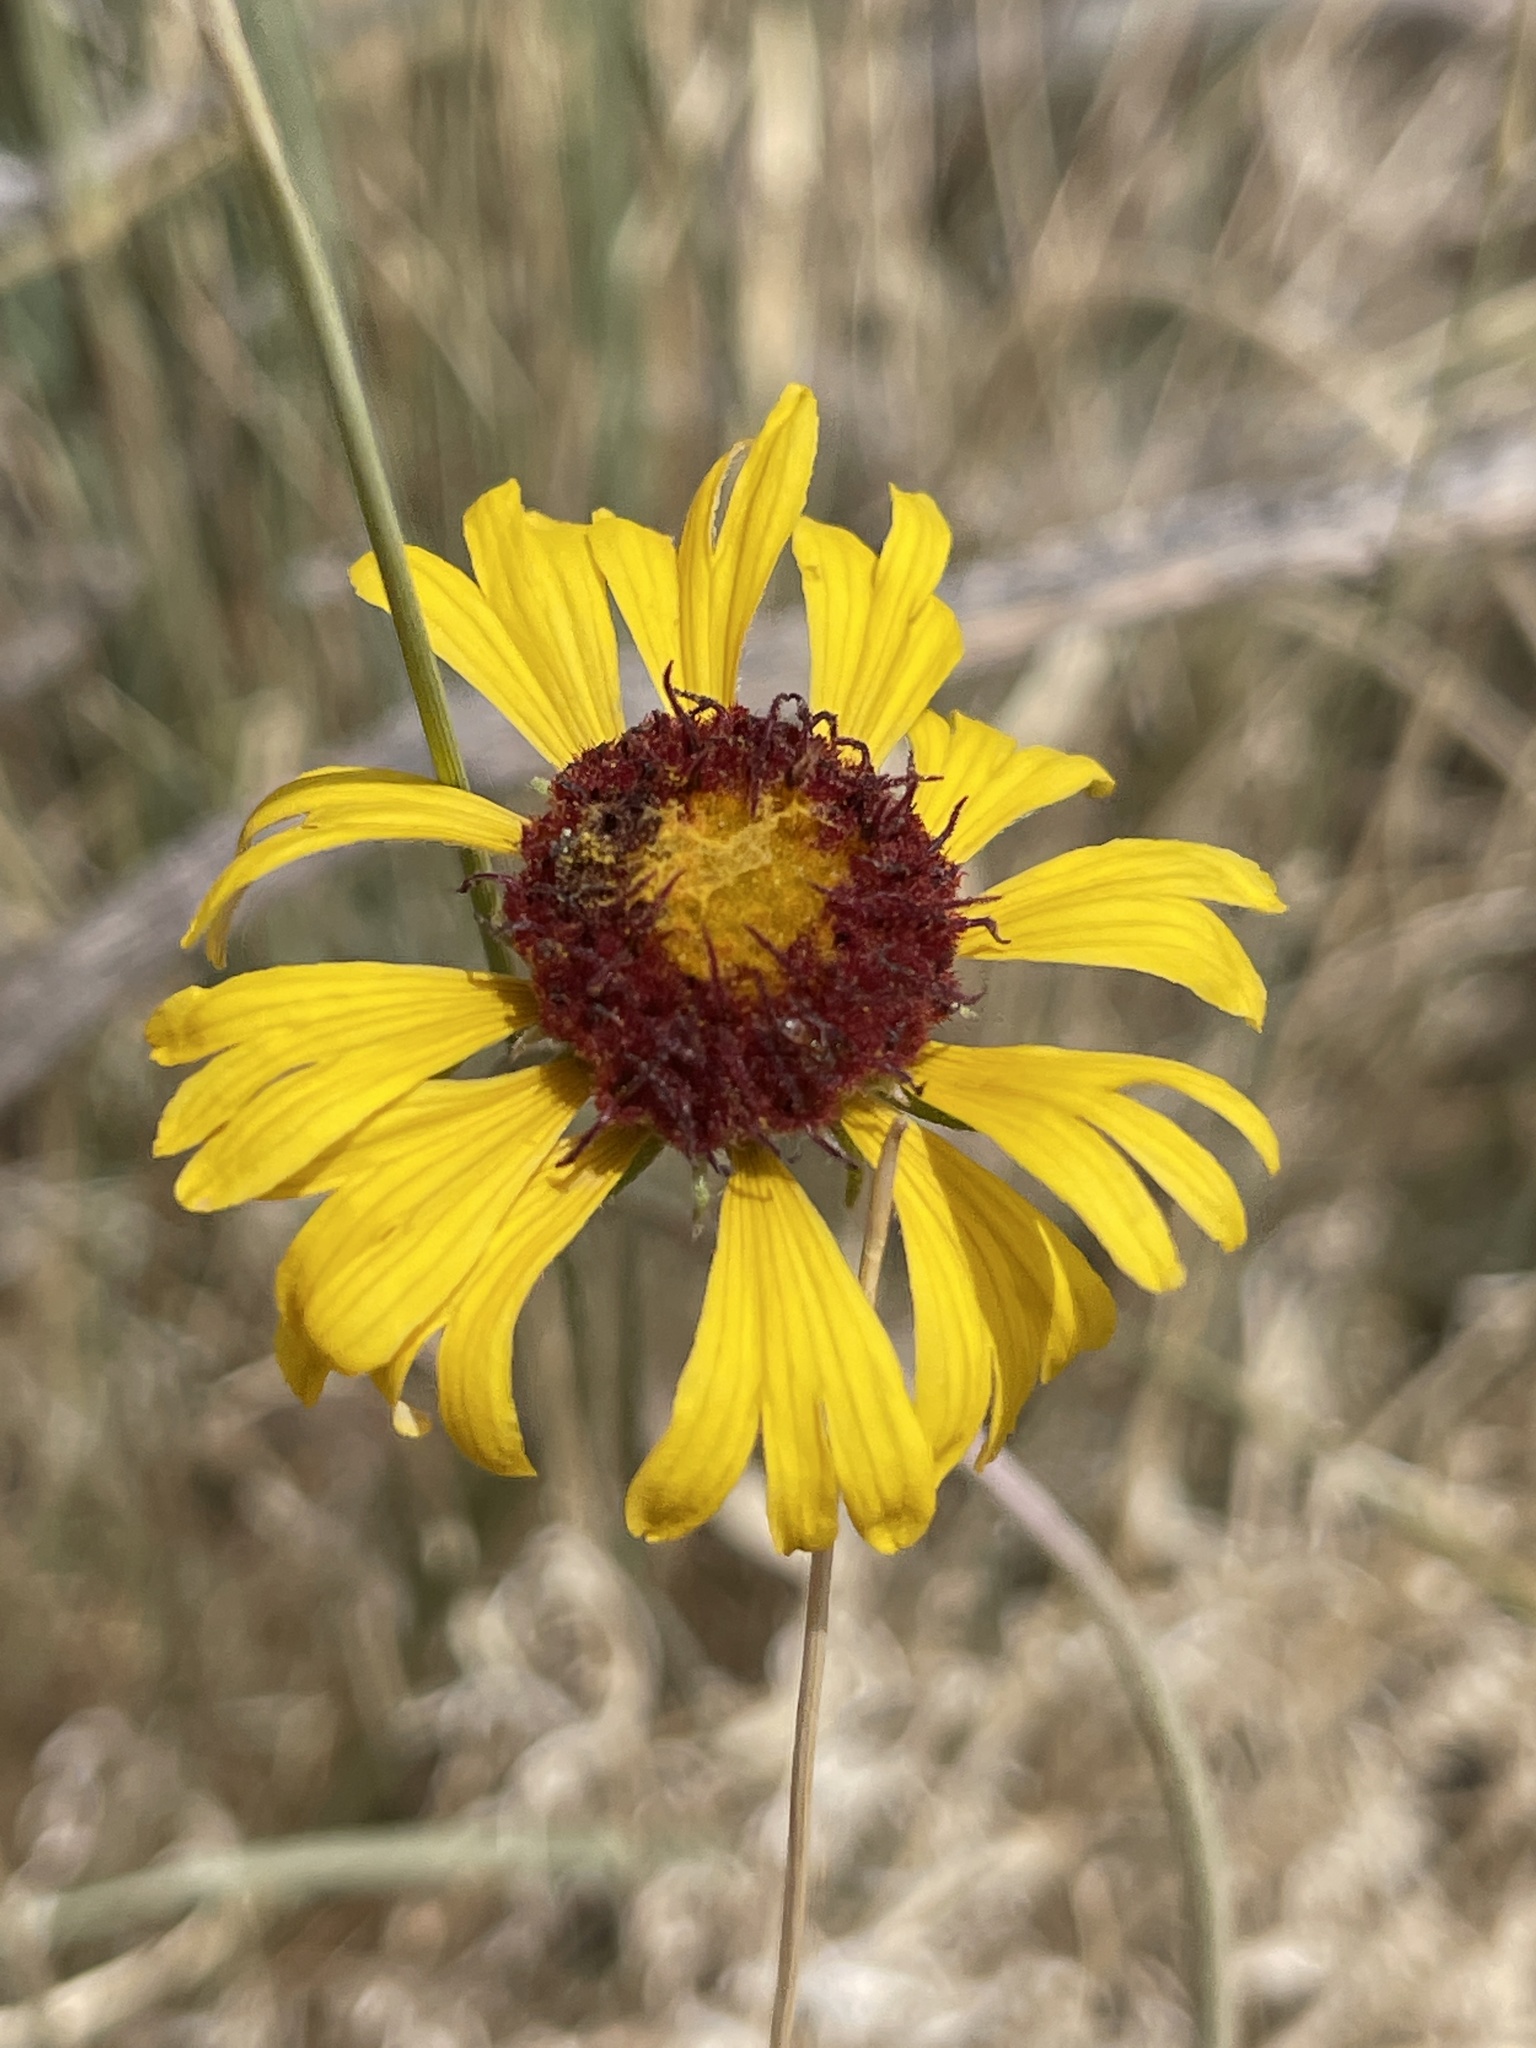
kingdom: Plantae
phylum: Tracheophyta
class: Magnoliopsida
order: Asterales
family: Asteraceae
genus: Gaillardia
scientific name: Gaillardia pinnatifida
